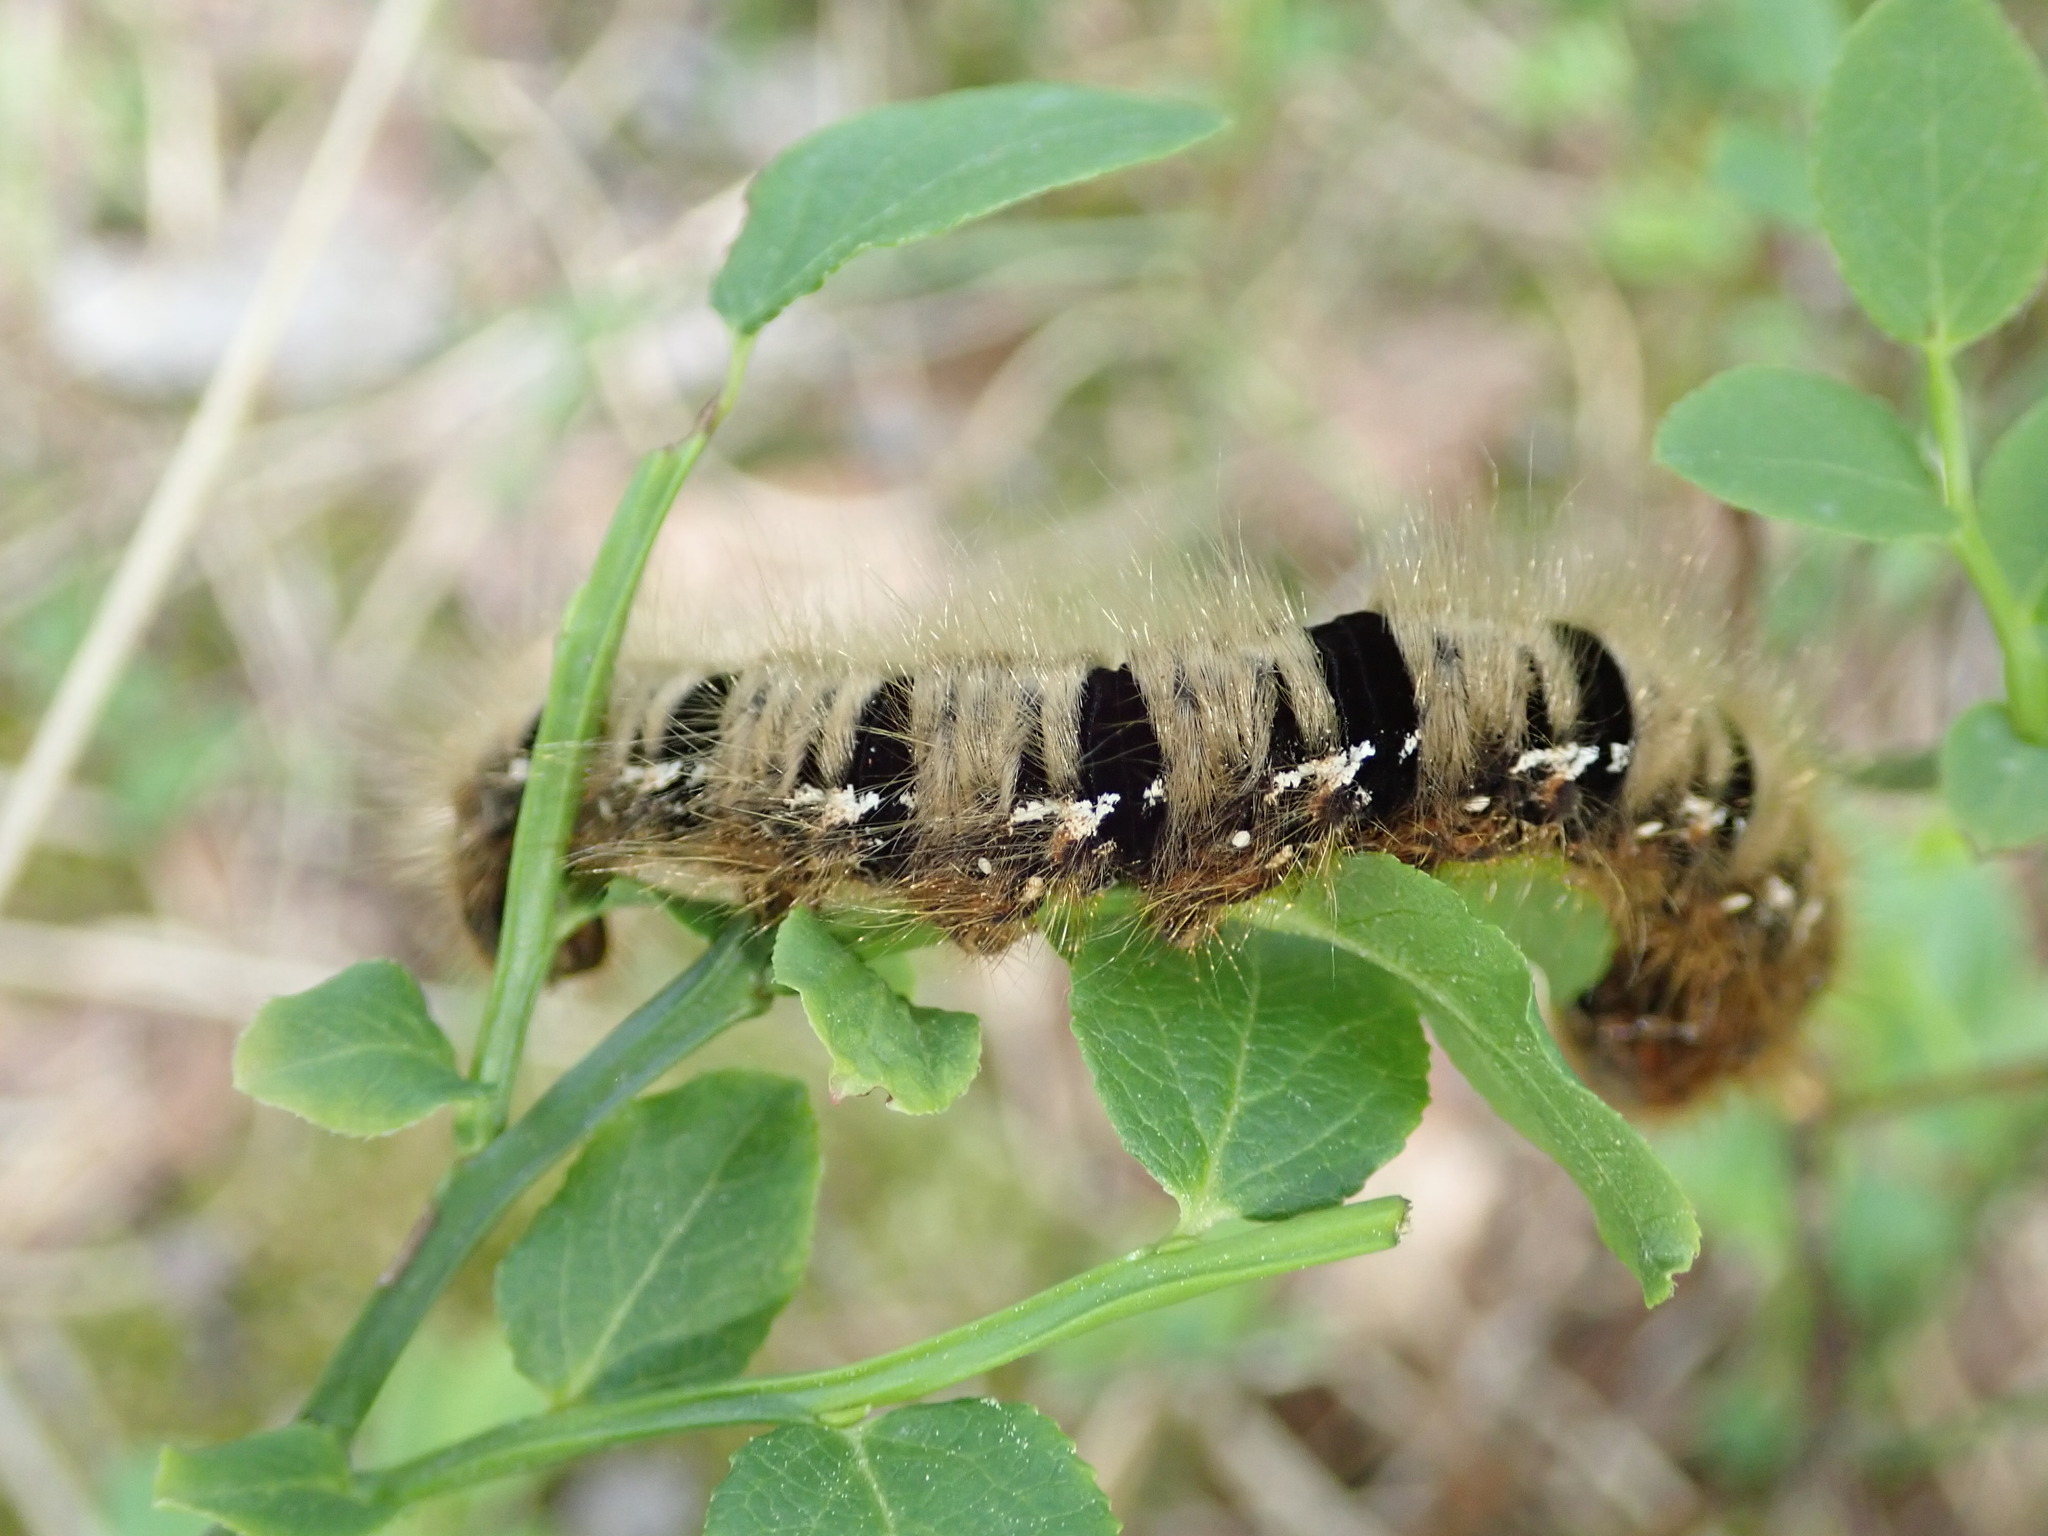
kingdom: Animalia
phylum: Arthropoda
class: Insecta
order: Lepidoptera
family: Lasiocampidae
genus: Lasiocampa
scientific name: Lasiocampa quercus
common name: Oak eggar
